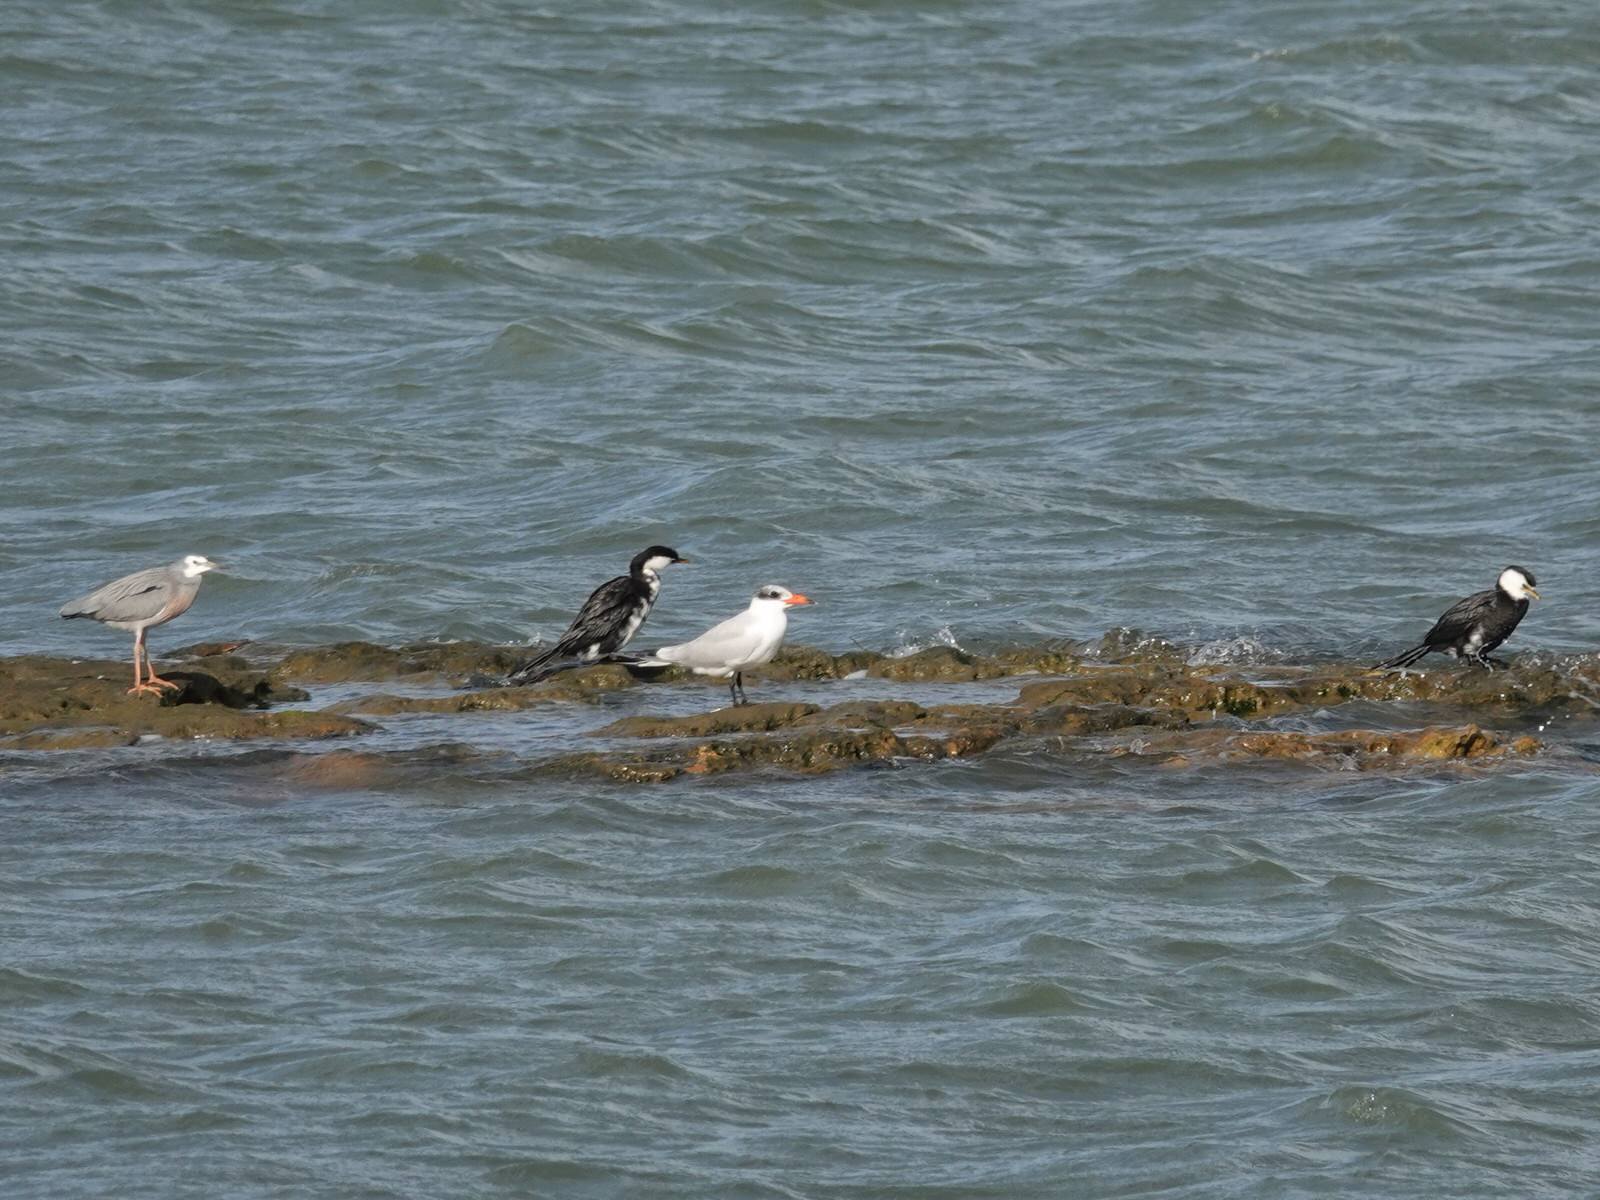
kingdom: Animalia
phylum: Chordata
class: Aves
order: Pelecaniformes
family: Ardeidae
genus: Egretta
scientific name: Egretta novaehollandiae
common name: White-faced heron
